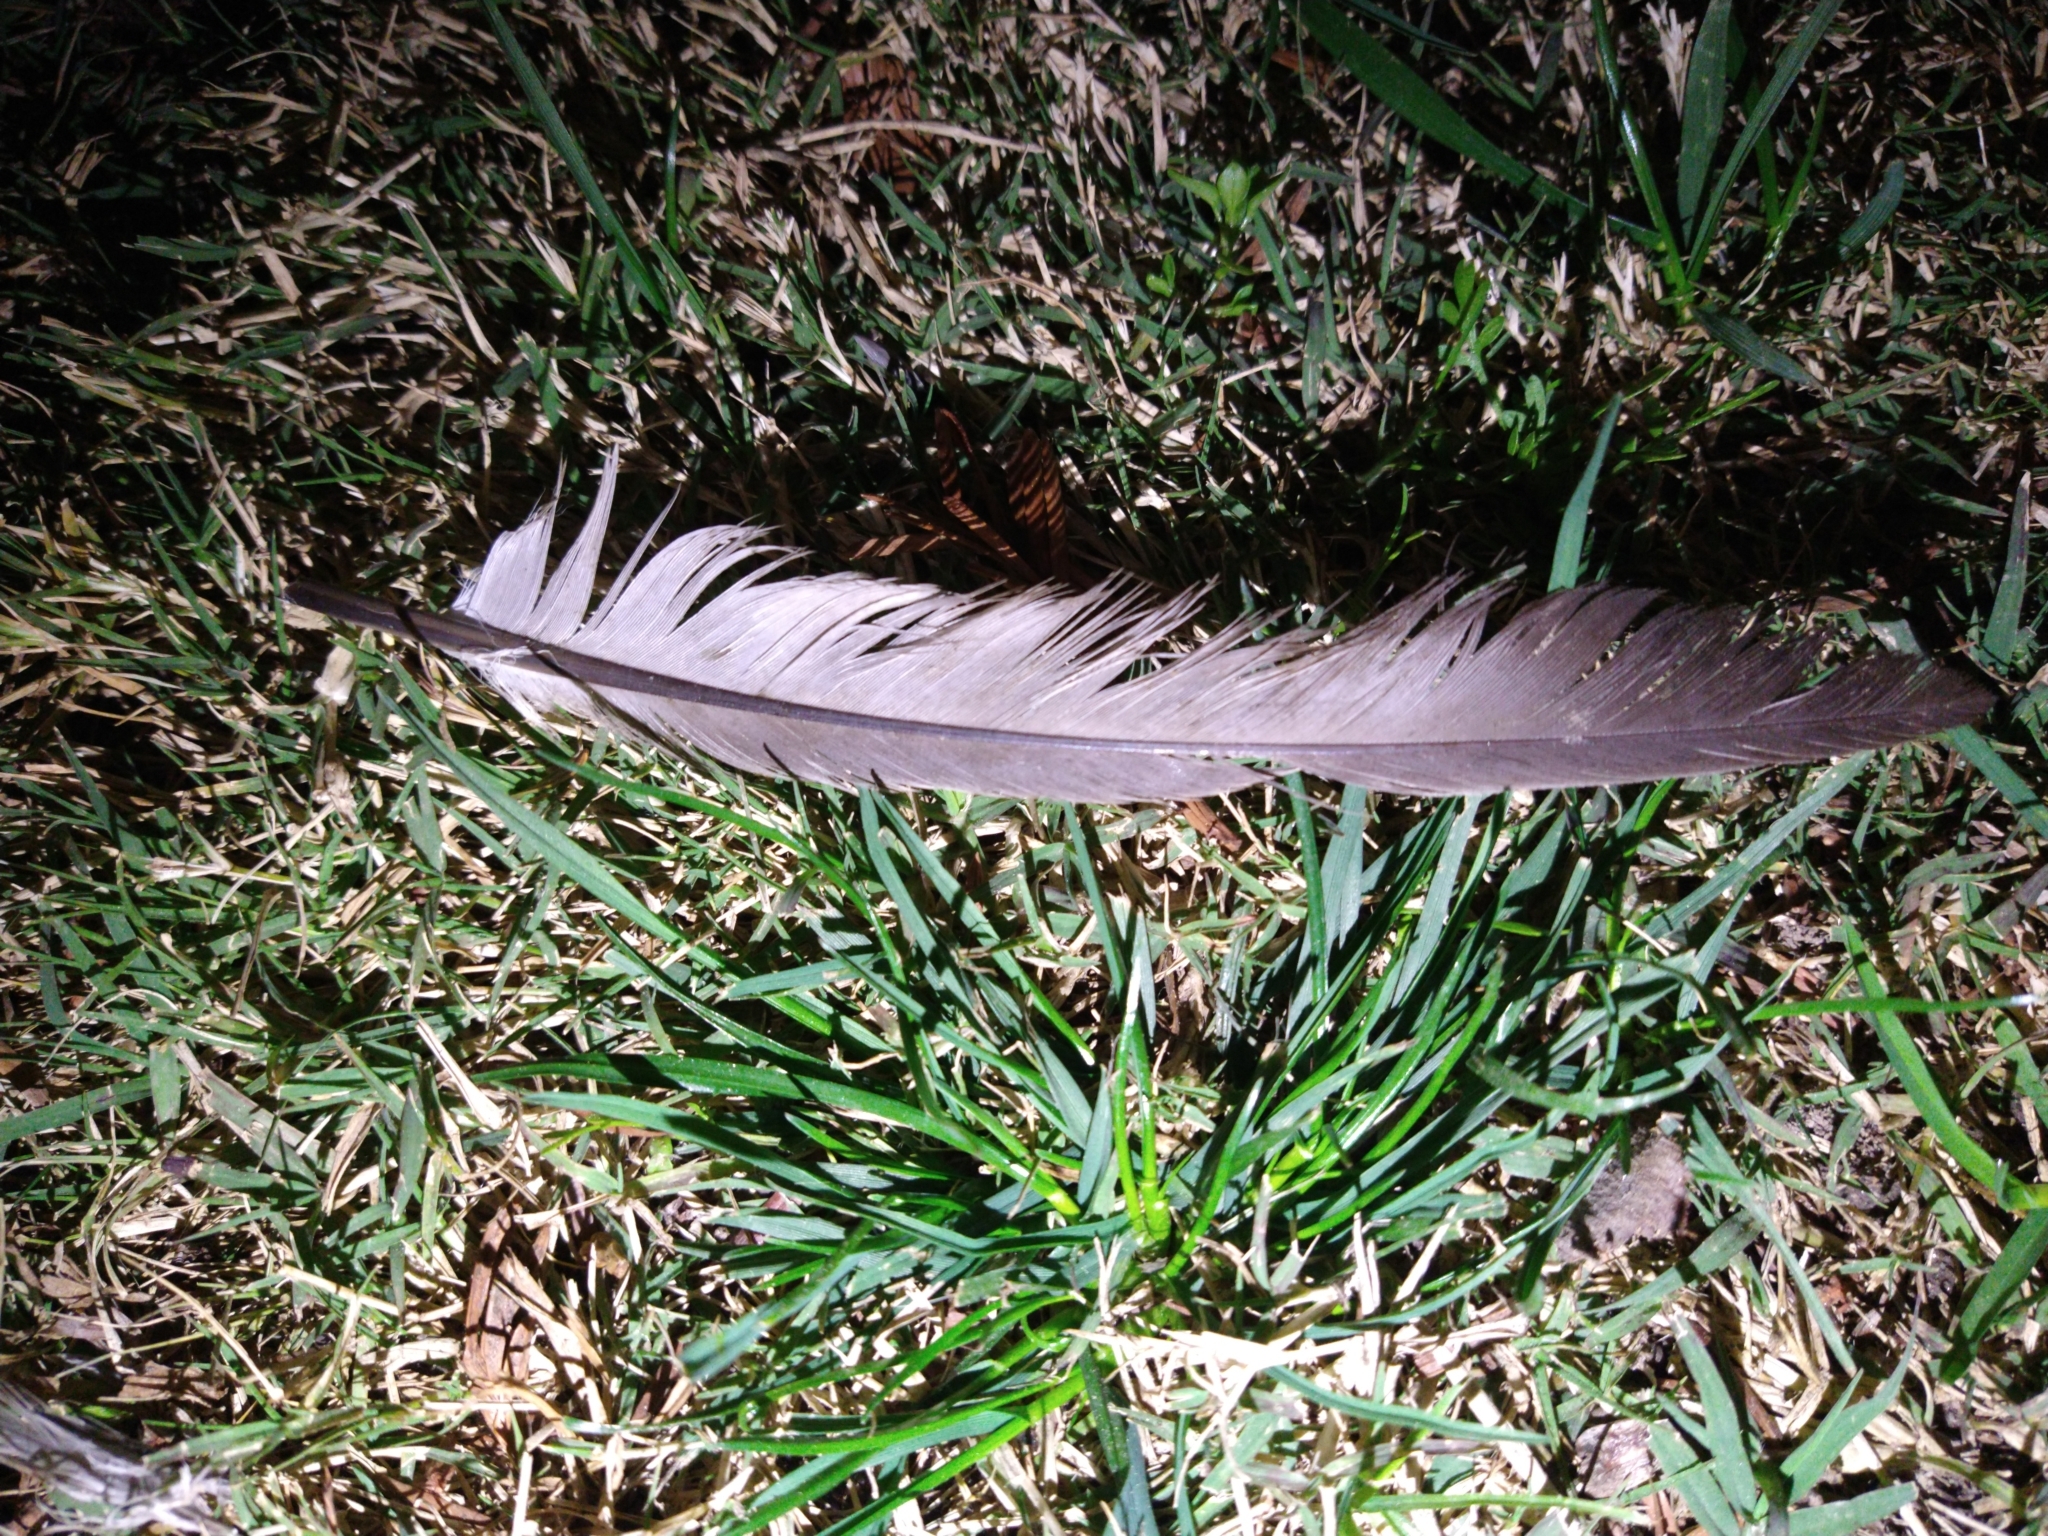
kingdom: Animalia
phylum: Chordata
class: Aves
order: Columbiformes
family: Columbidae
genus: Columba
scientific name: Columba livia
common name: Rock pigeon
